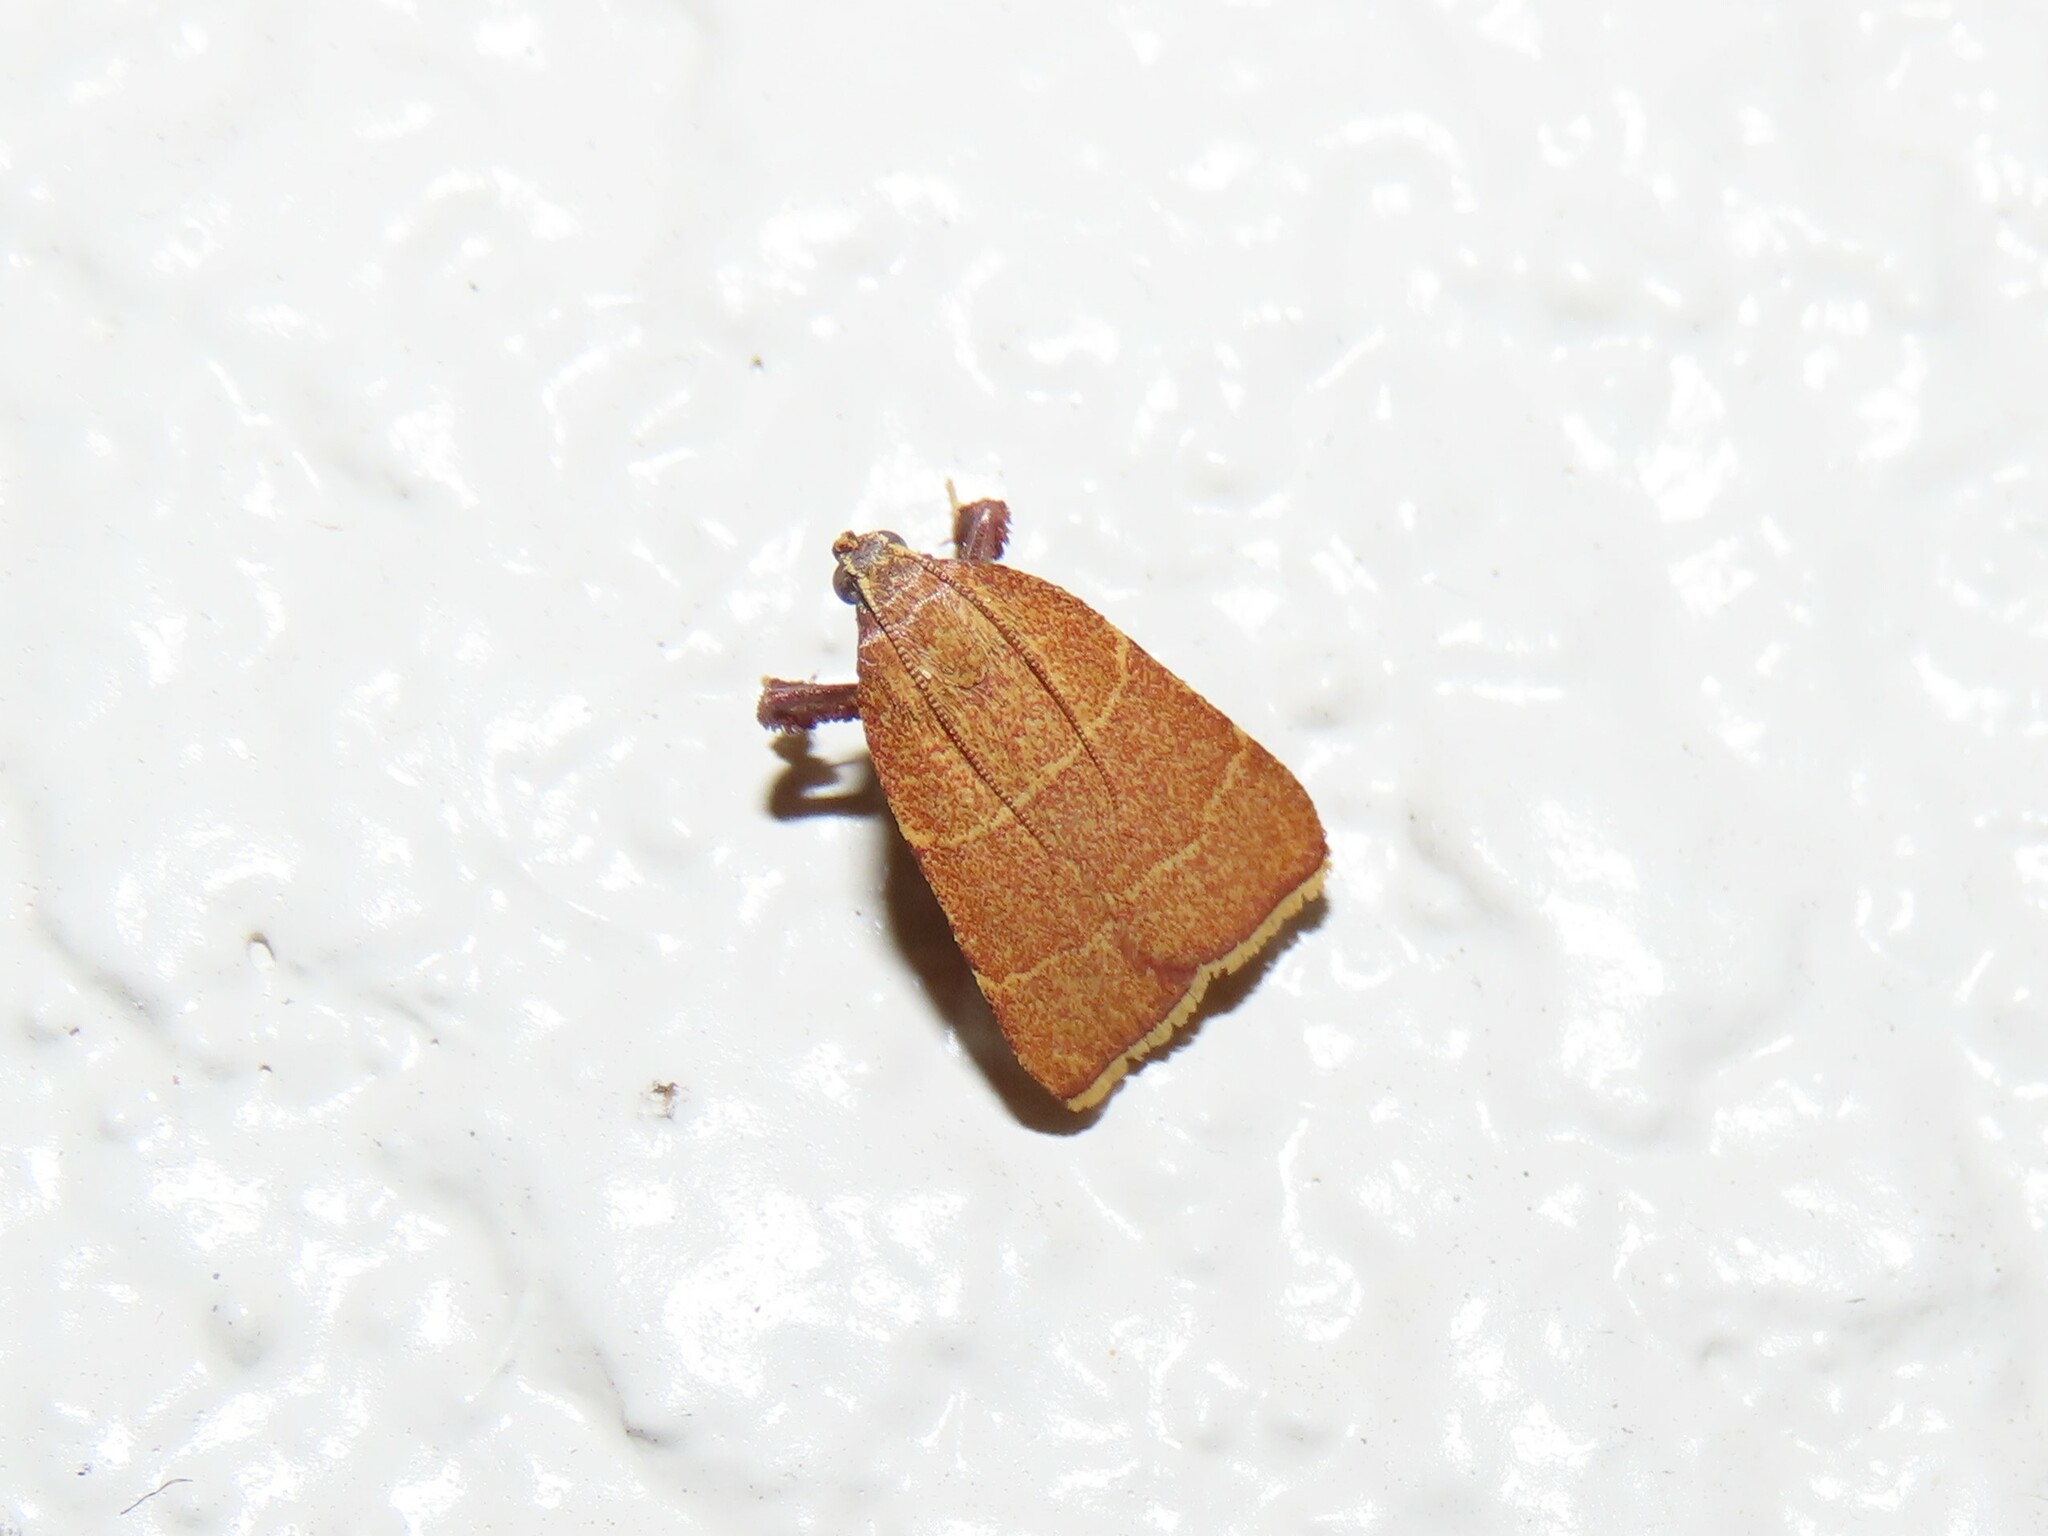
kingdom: Animalia
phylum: Arthropoda
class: Insecta
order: Lepidoptera
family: Pyralidae
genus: Parachma
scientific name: Parachma ochracealis
